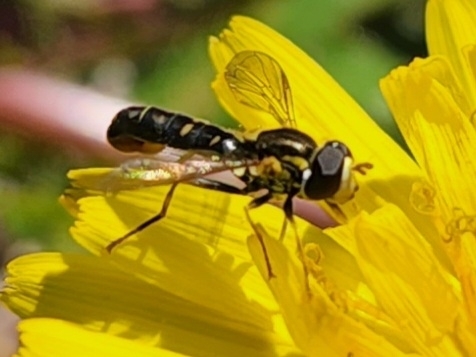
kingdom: Animalia
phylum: Arthropoda
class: Insecta
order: Diptera
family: Syrphidae
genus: Sphaerophoria
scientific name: Sphaerophoria sulphuripes
